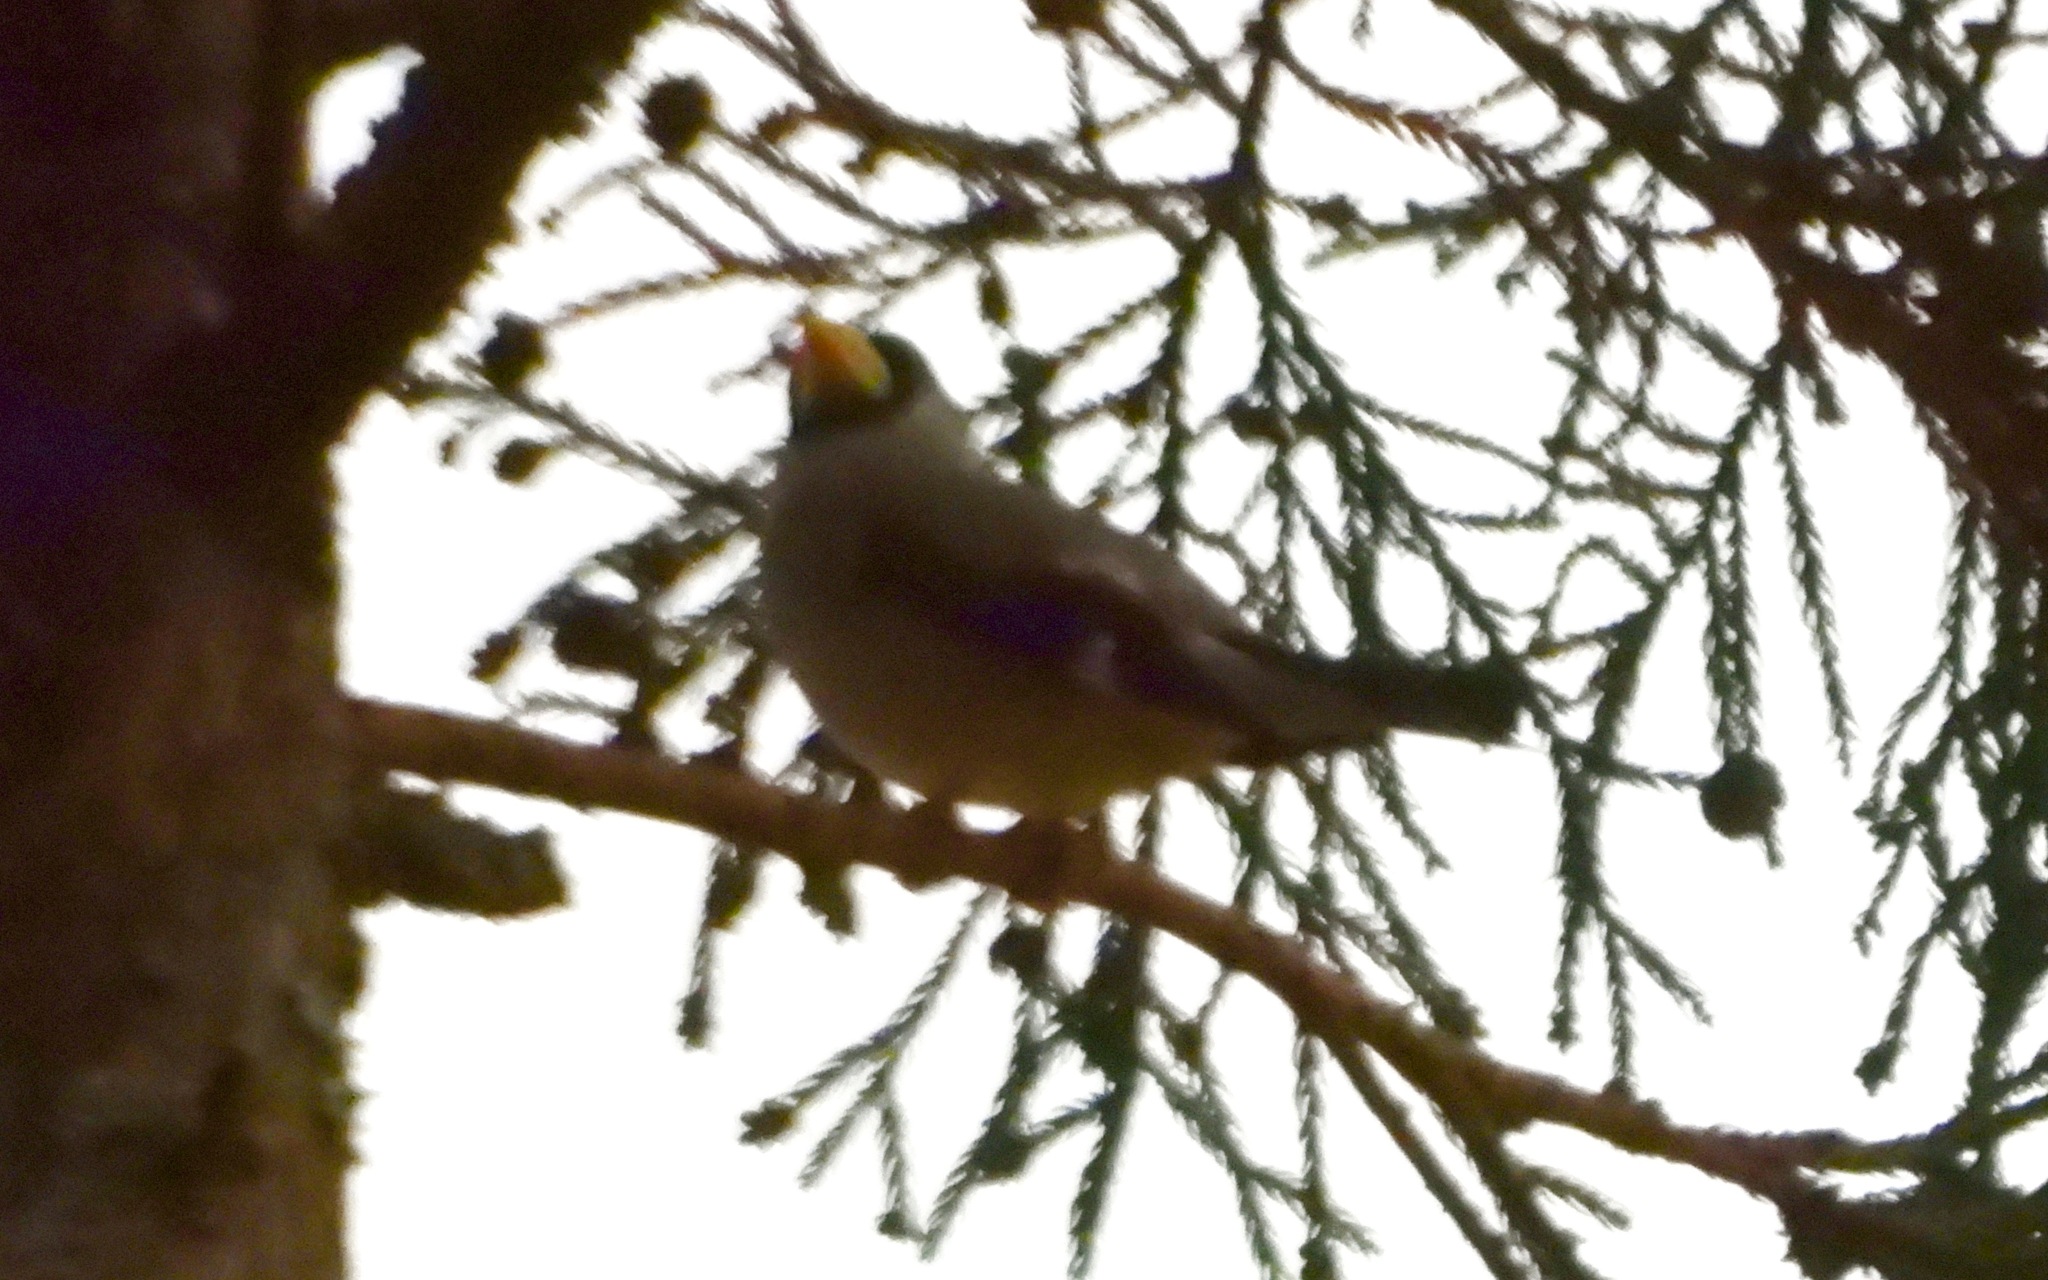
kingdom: Animalia
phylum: Chordata
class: Aves
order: Passeriformes
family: Fringillidae
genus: Eophona
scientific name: Eophona personata
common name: Japanese grosbeak
